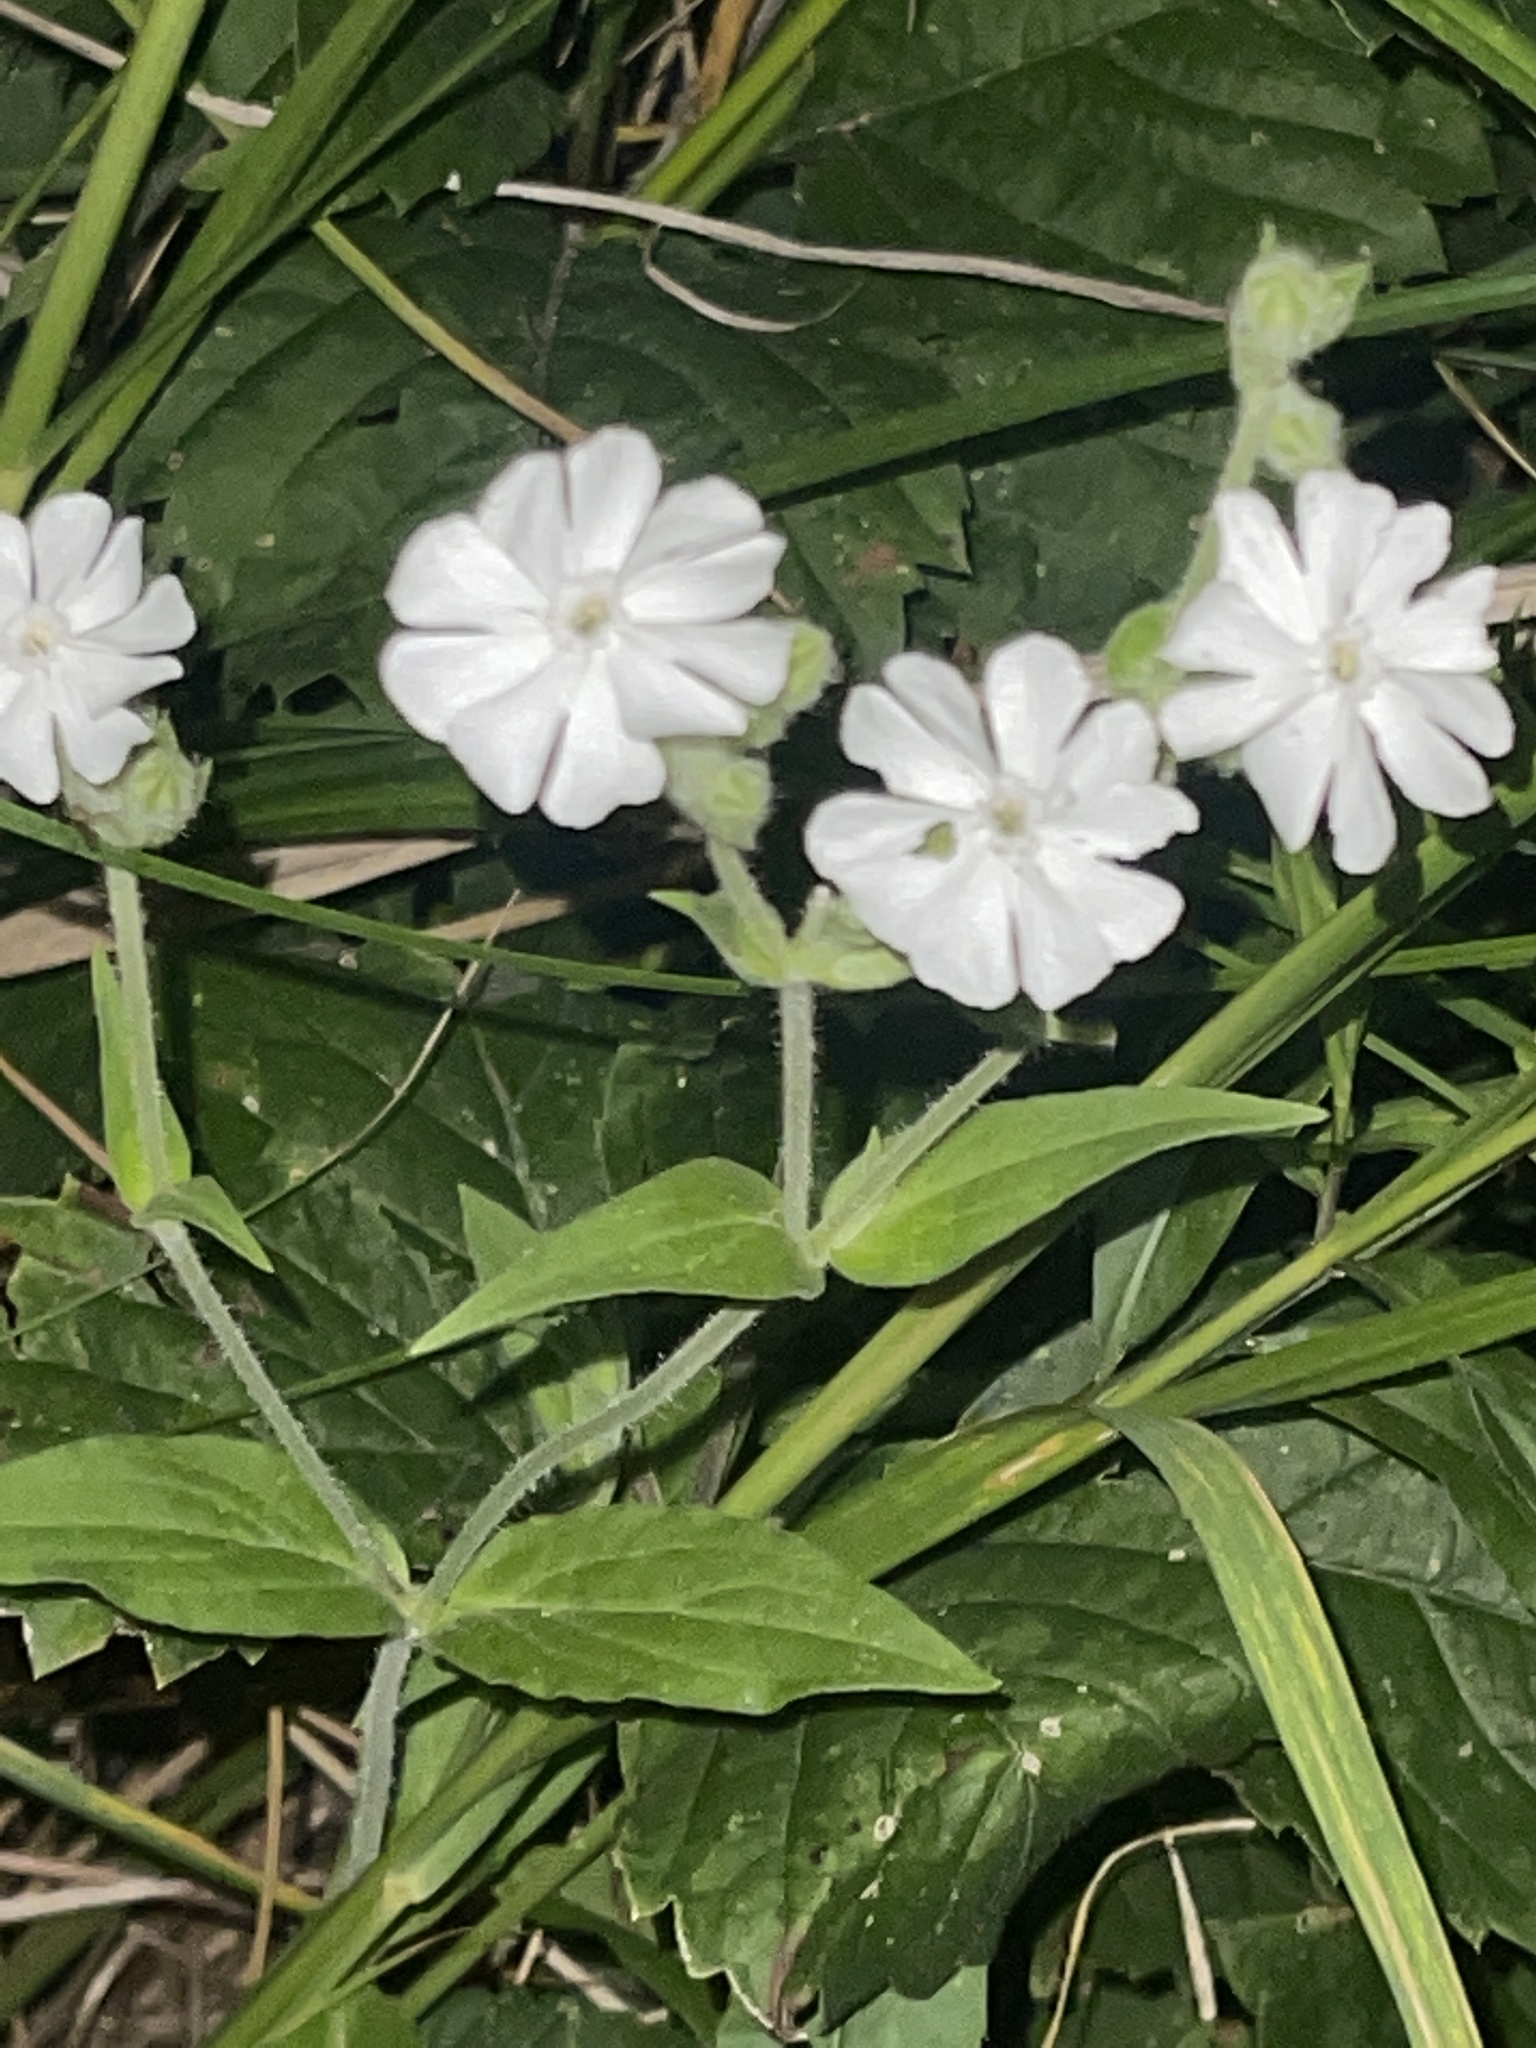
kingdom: Plantae
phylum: Tracheophyta
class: Magnoliopsida
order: Caryophyllales
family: Caryophyllaceae
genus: Silene
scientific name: Silene latifolia
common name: White campion
